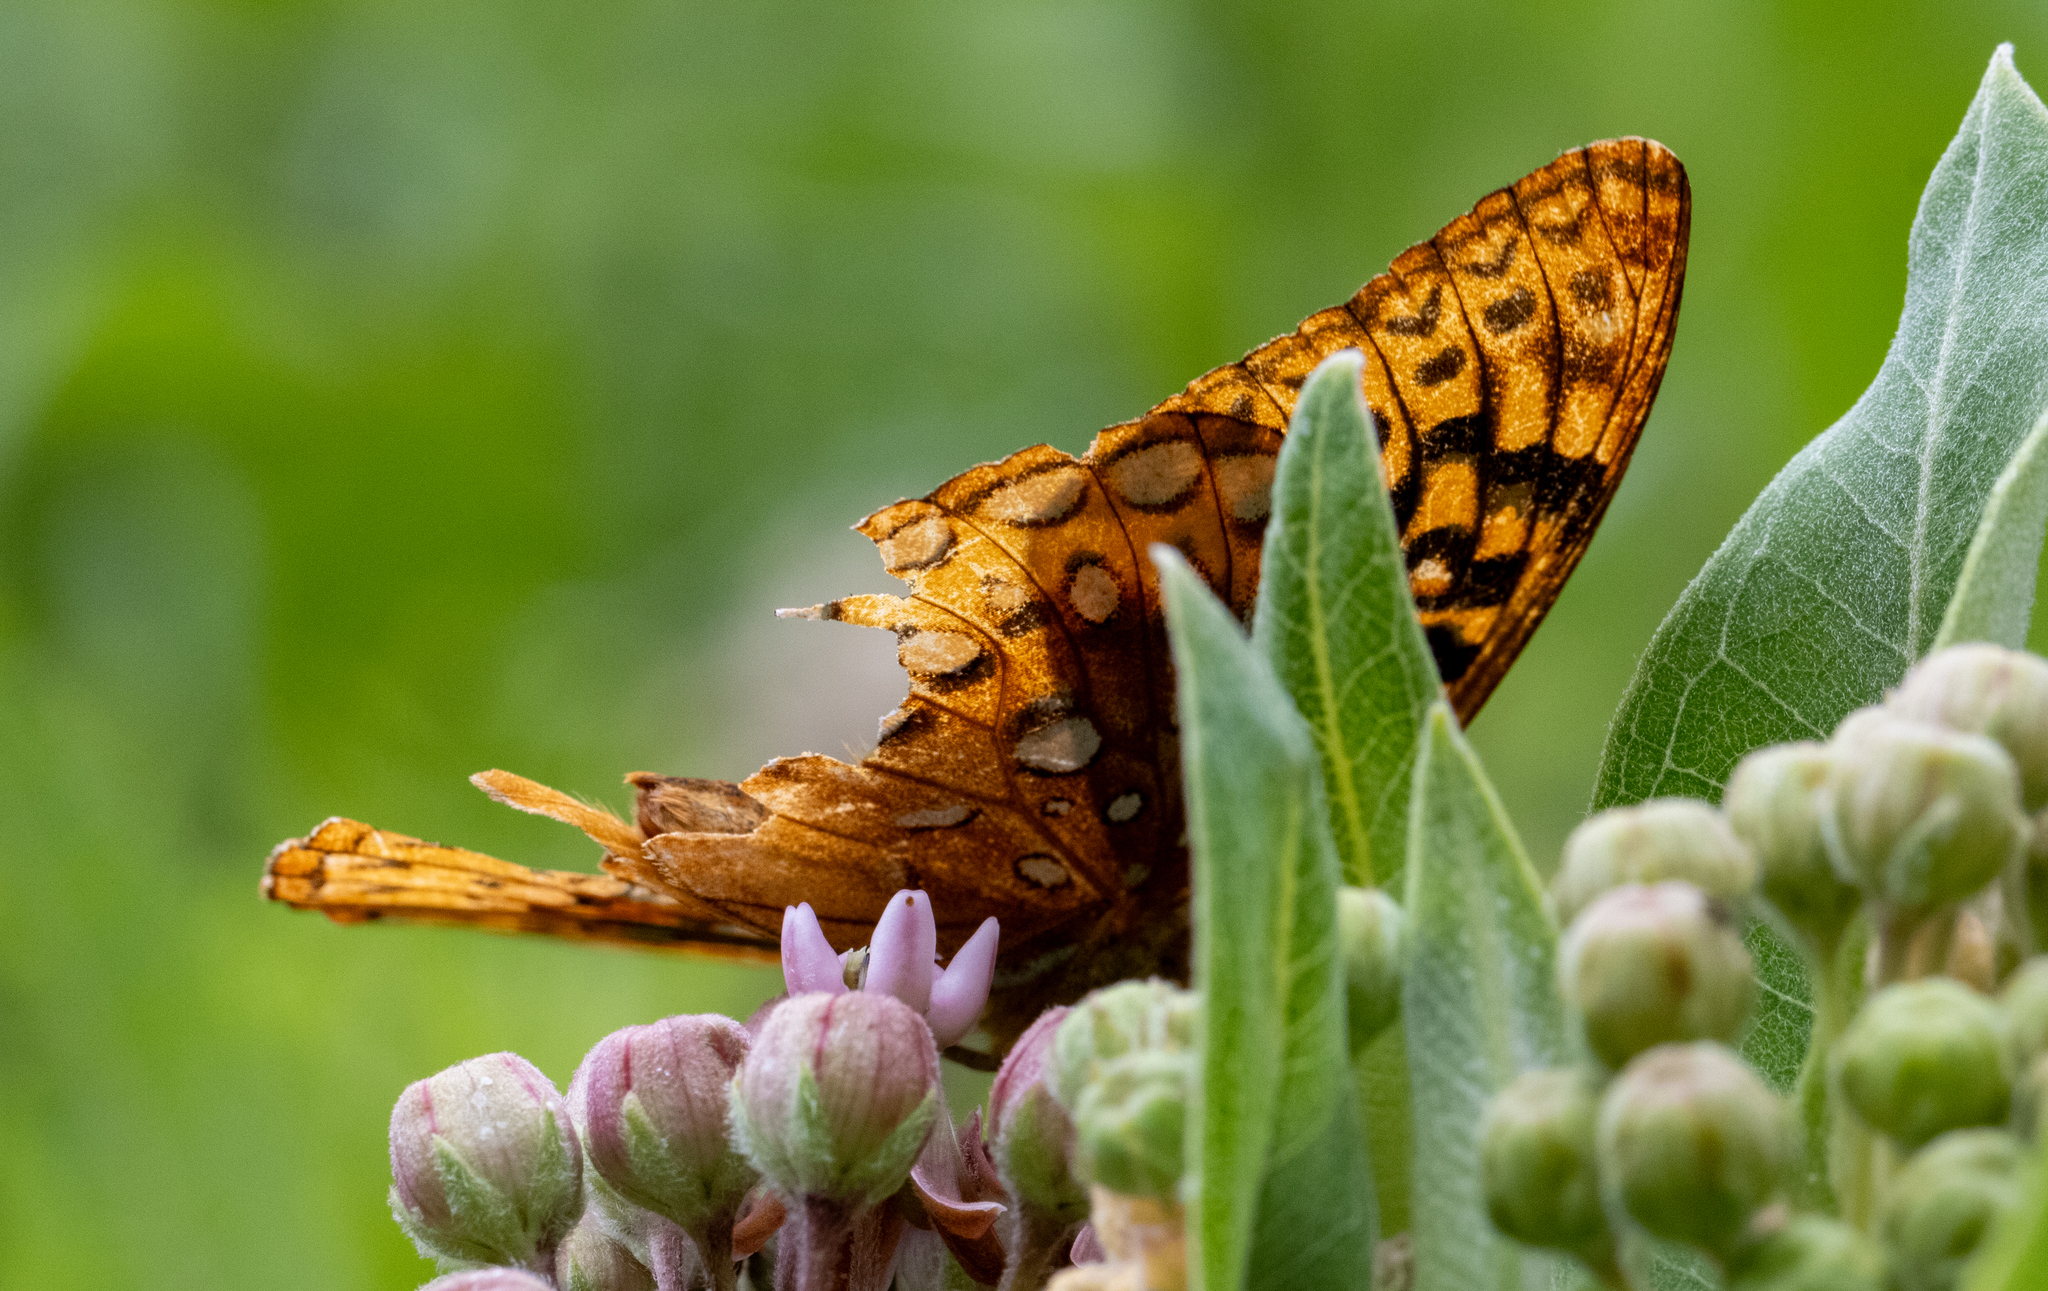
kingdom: Animalia
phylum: Arthropoda
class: Insecta
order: Lepidoptera
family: Nymphalidae
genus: Speyeria
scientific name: Speyeria cybele
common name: Great spangled fritillary
